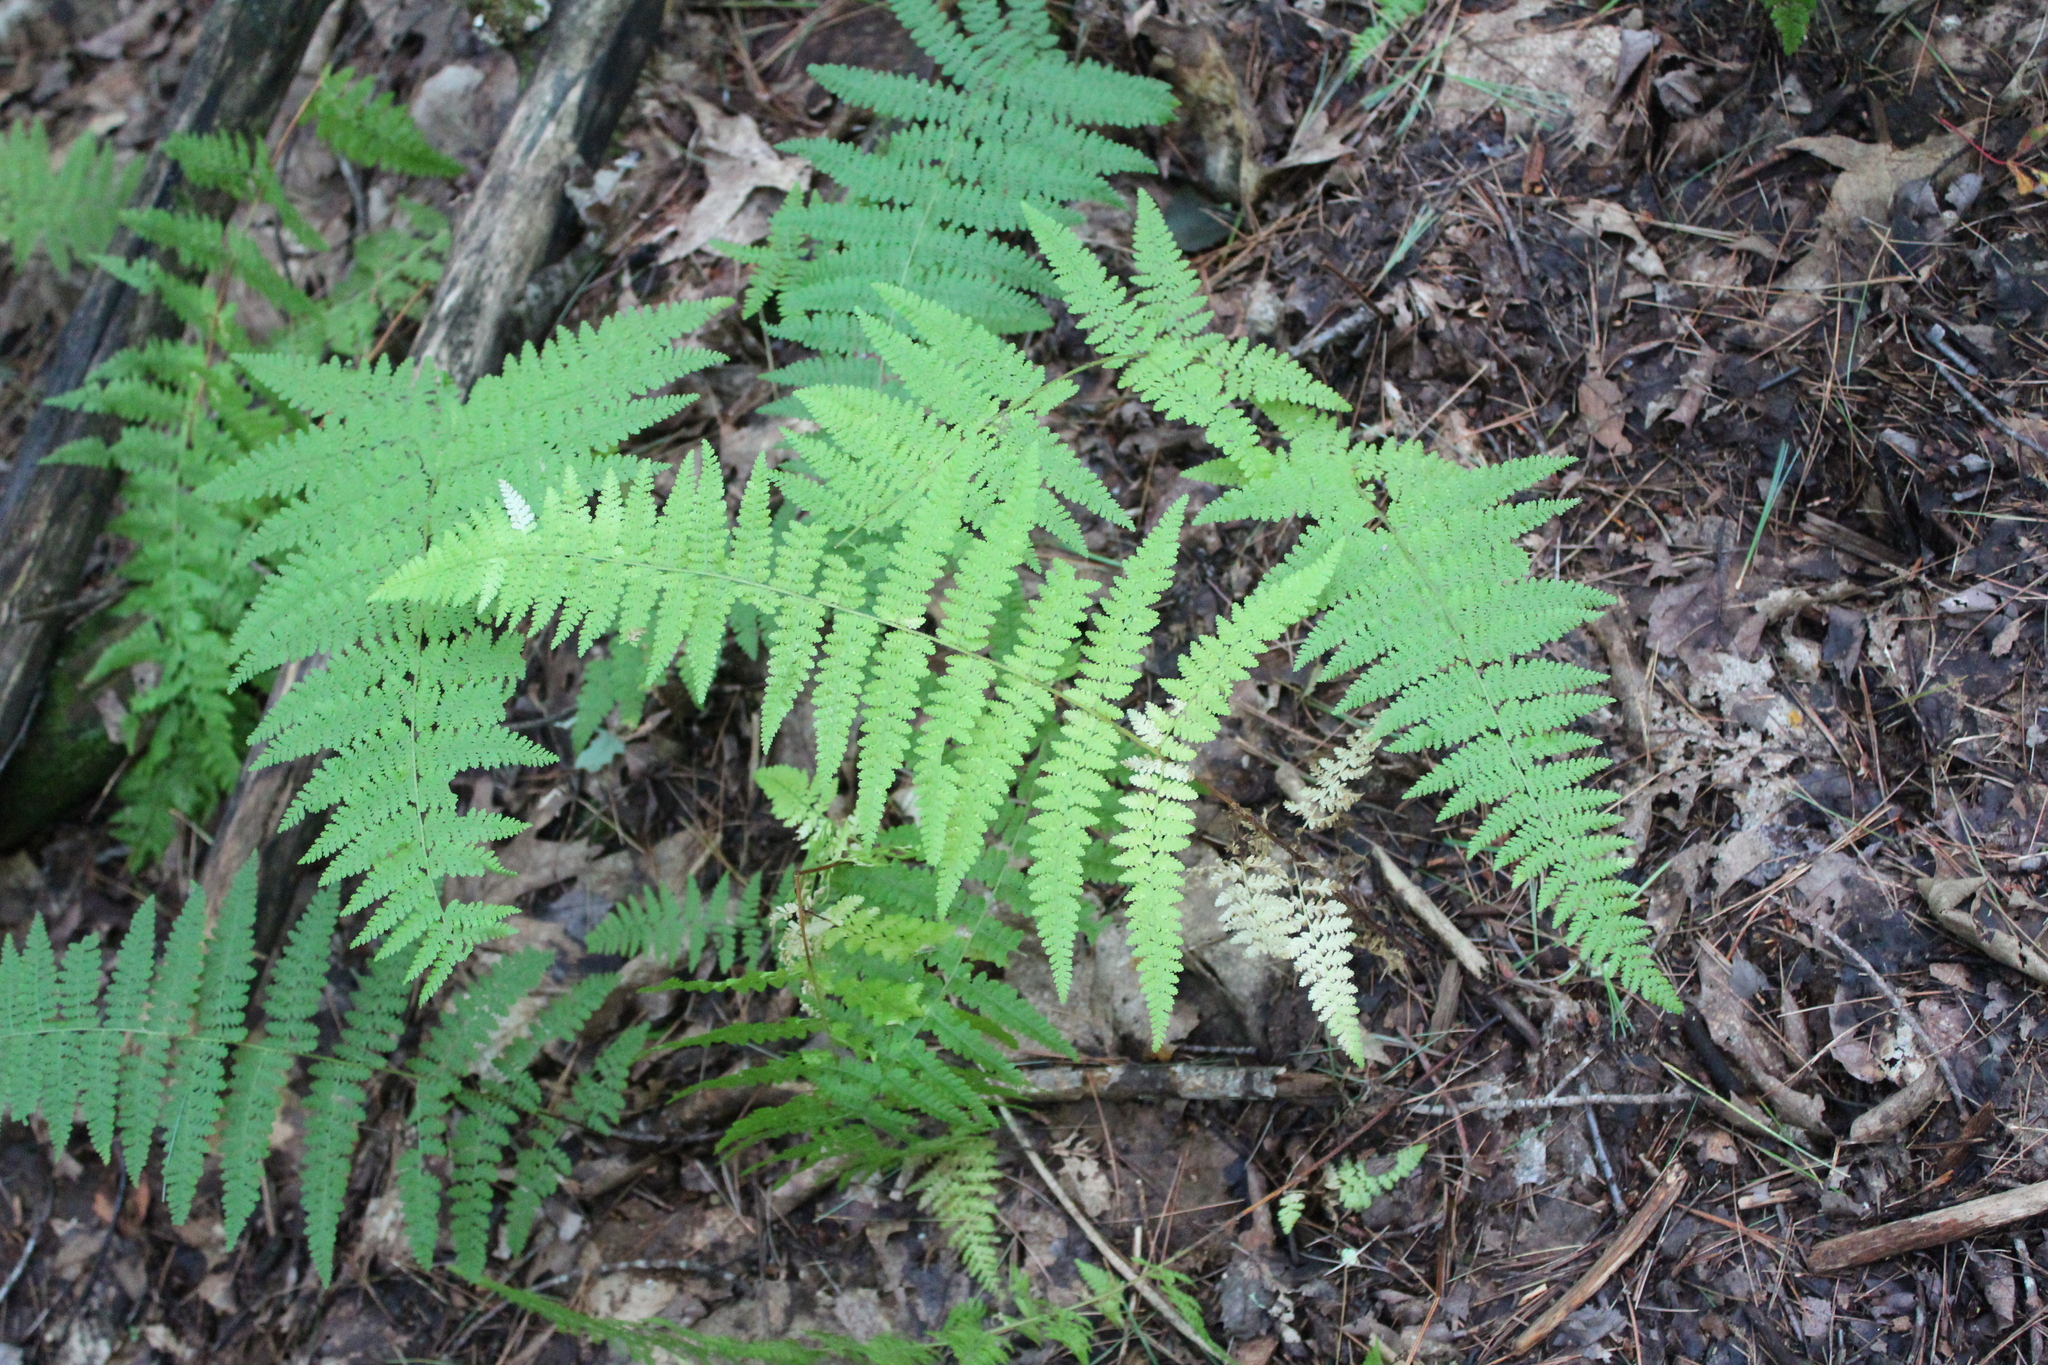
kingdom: Plantae
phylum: Tracheophyta
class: Polypodiopsida
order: Polypodiales
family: Dennstaedtiaceae
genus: Sitobolium
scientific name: Sitobolium punctilobum
